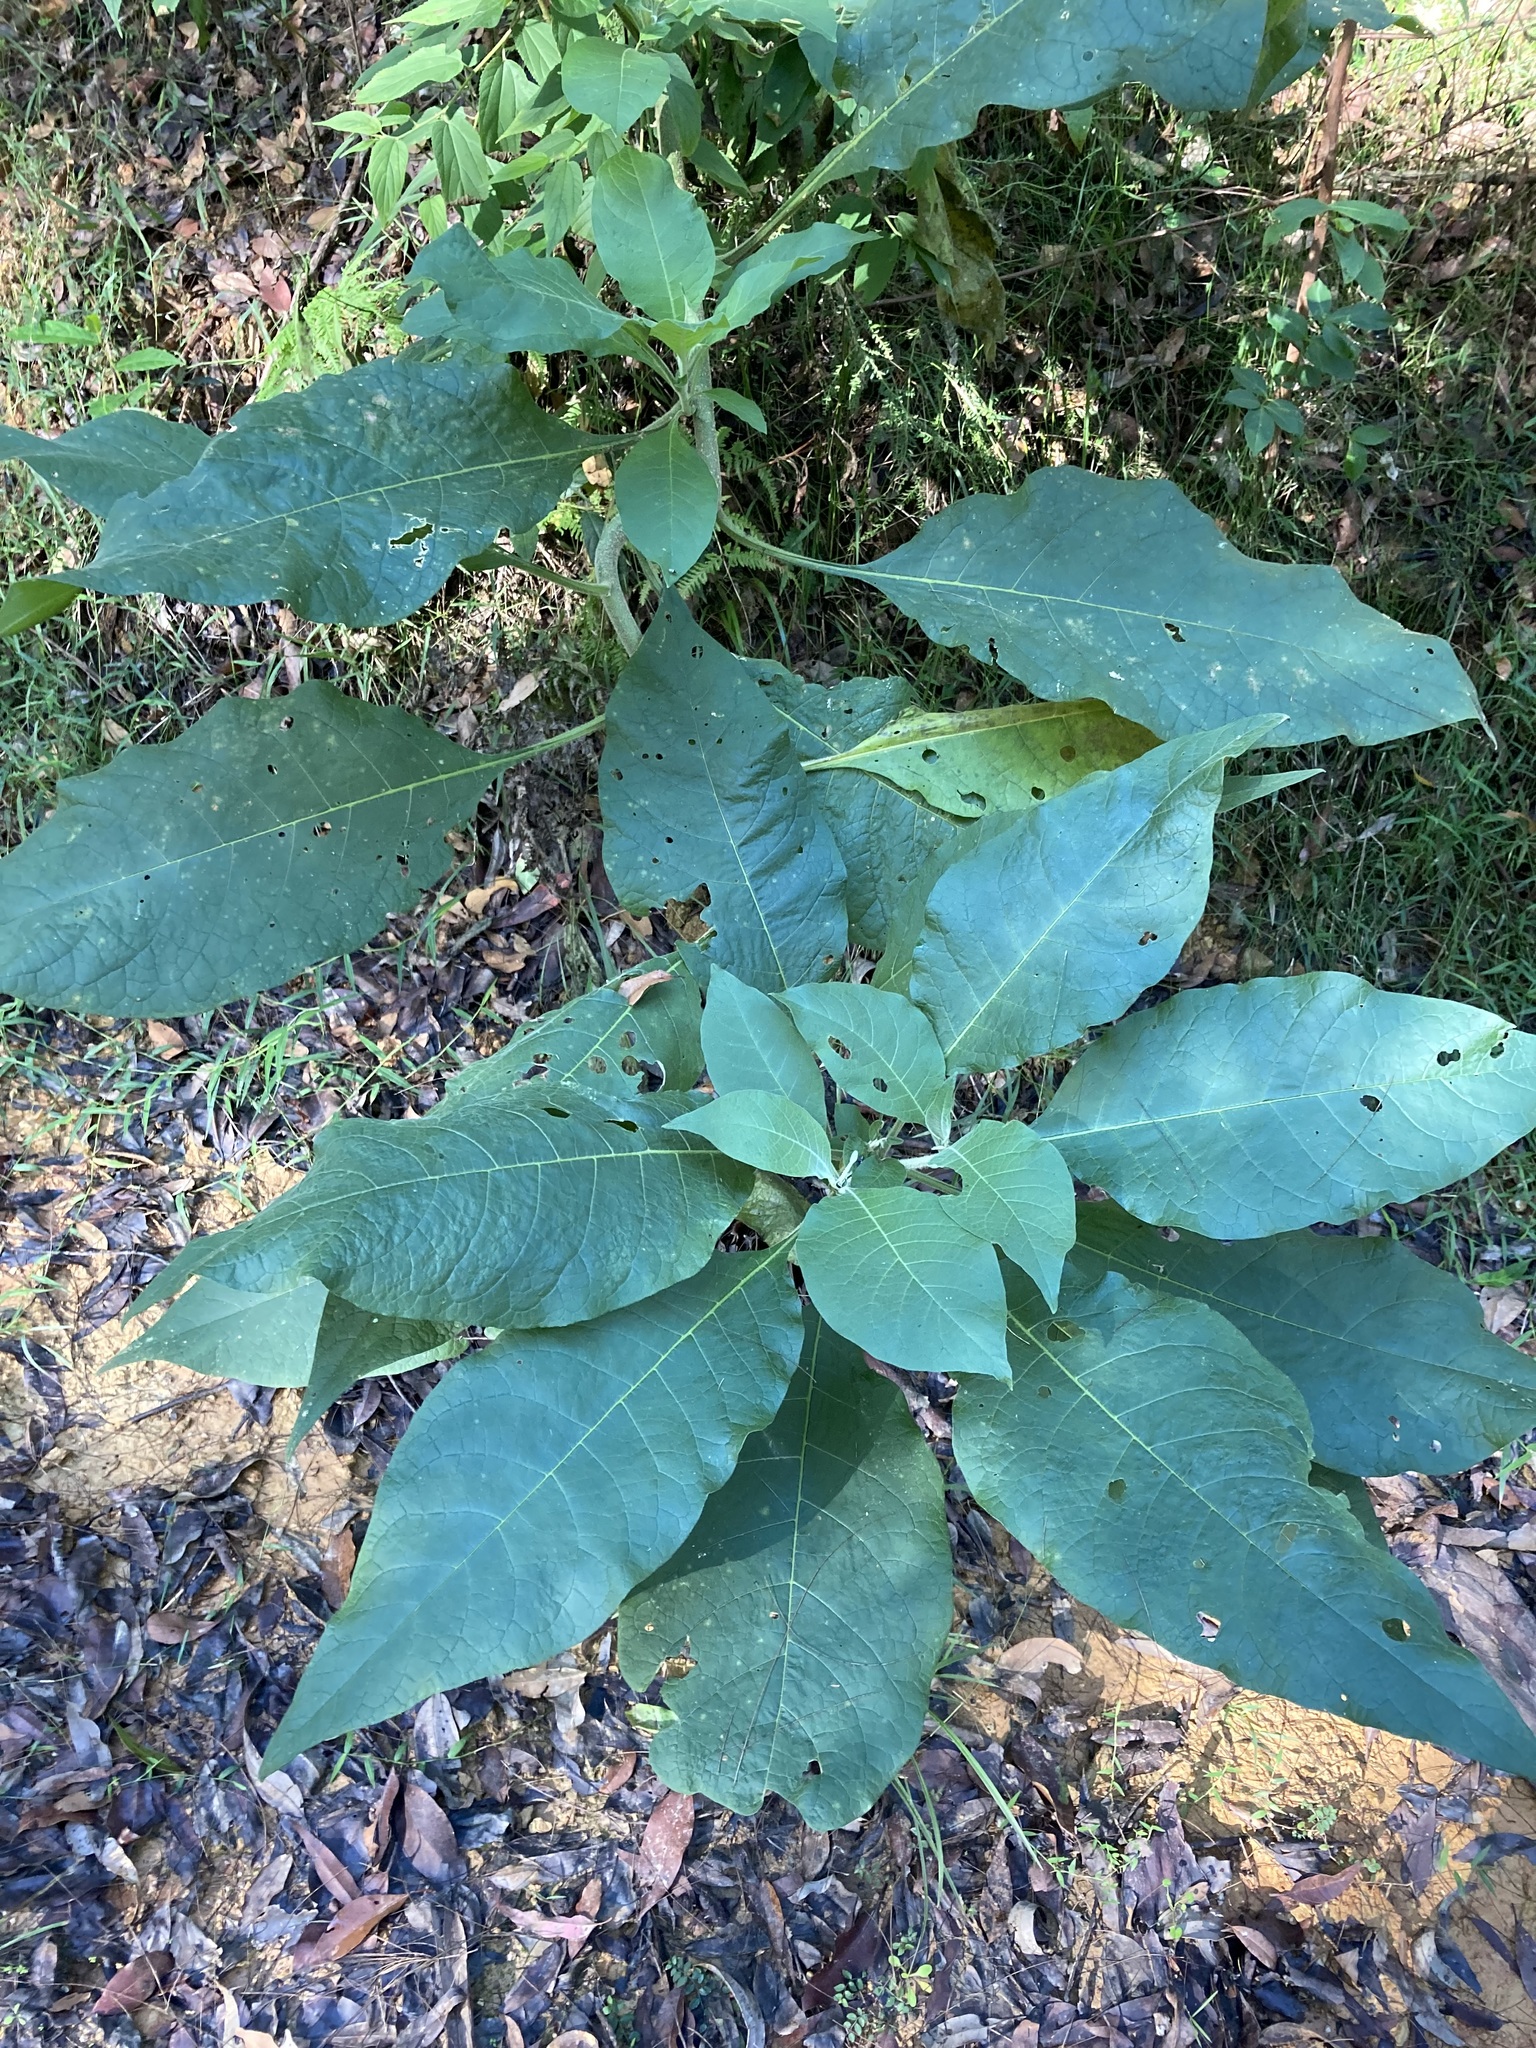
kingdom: Plantae
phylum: Tracheophyta
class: Magnoliopsida
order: Solanales
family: Solanaceae
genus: Solanum
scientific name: Solanum mauritianum
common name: Earleaf nightshade
